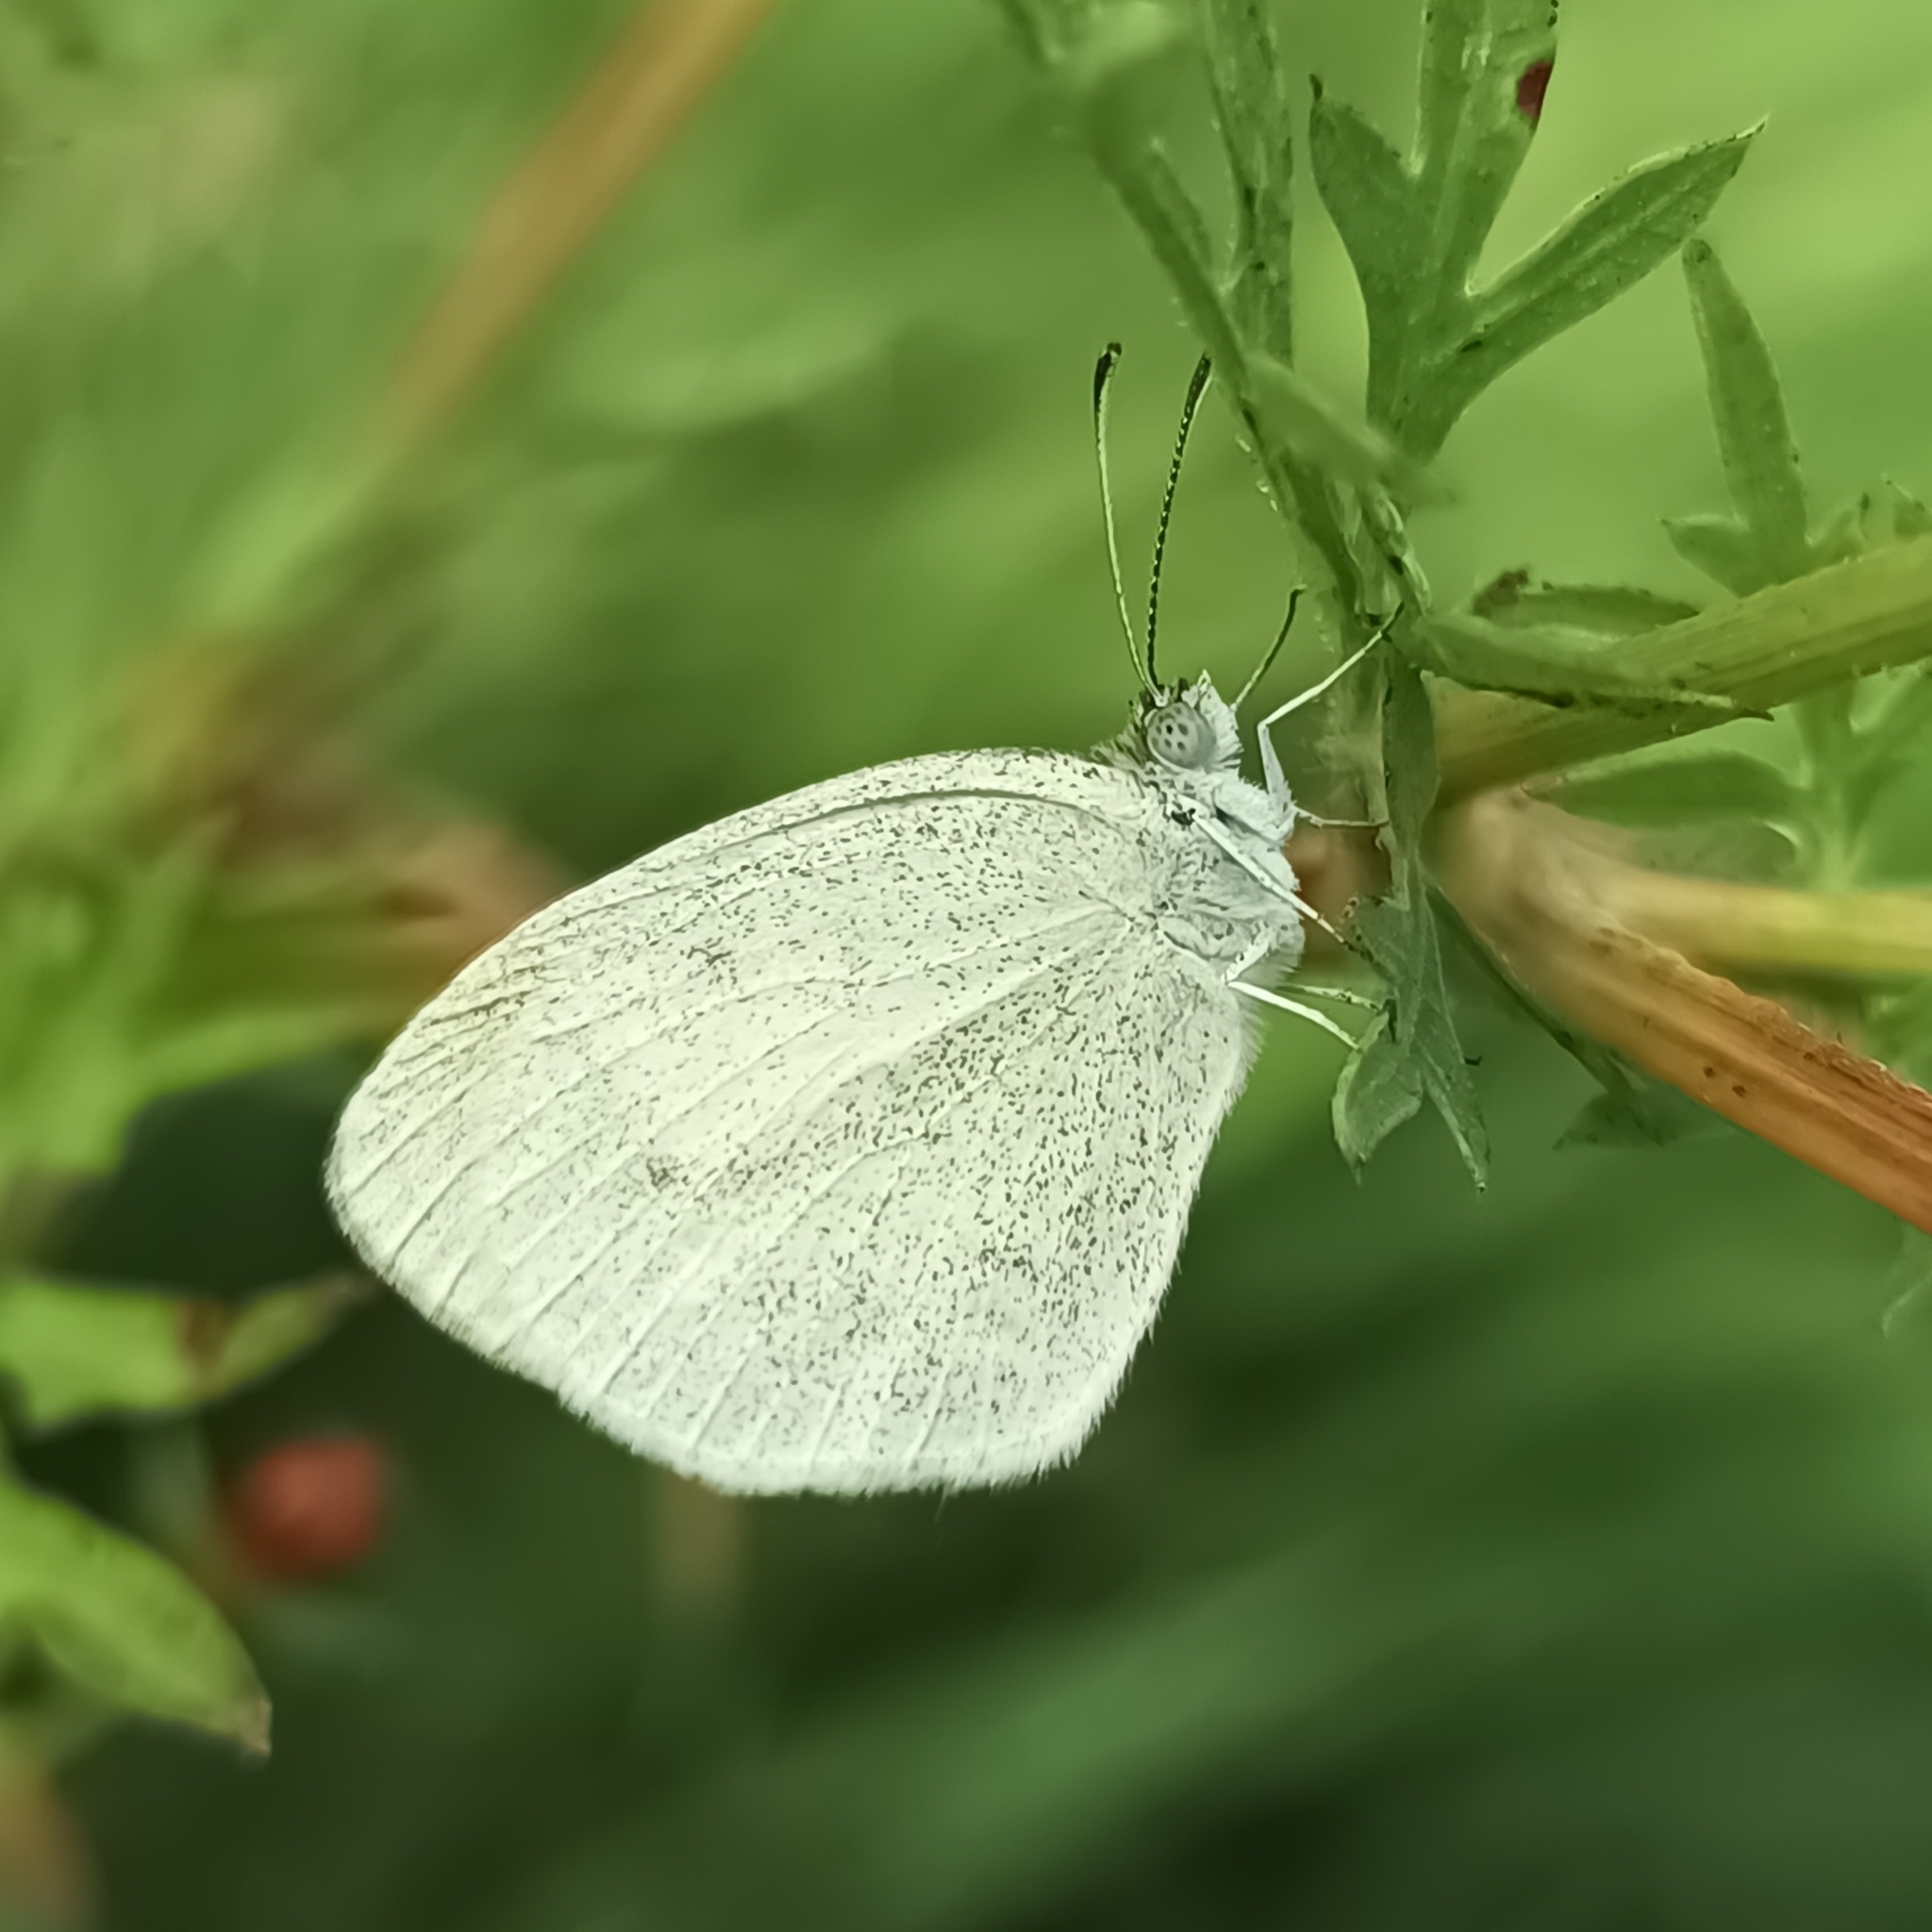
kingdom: Animalia
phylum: Arthropoda
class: Insecta
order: Lepidoptera
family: Pieridae
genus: Eurema
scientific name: Eurema daira
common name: Barred sulphur
